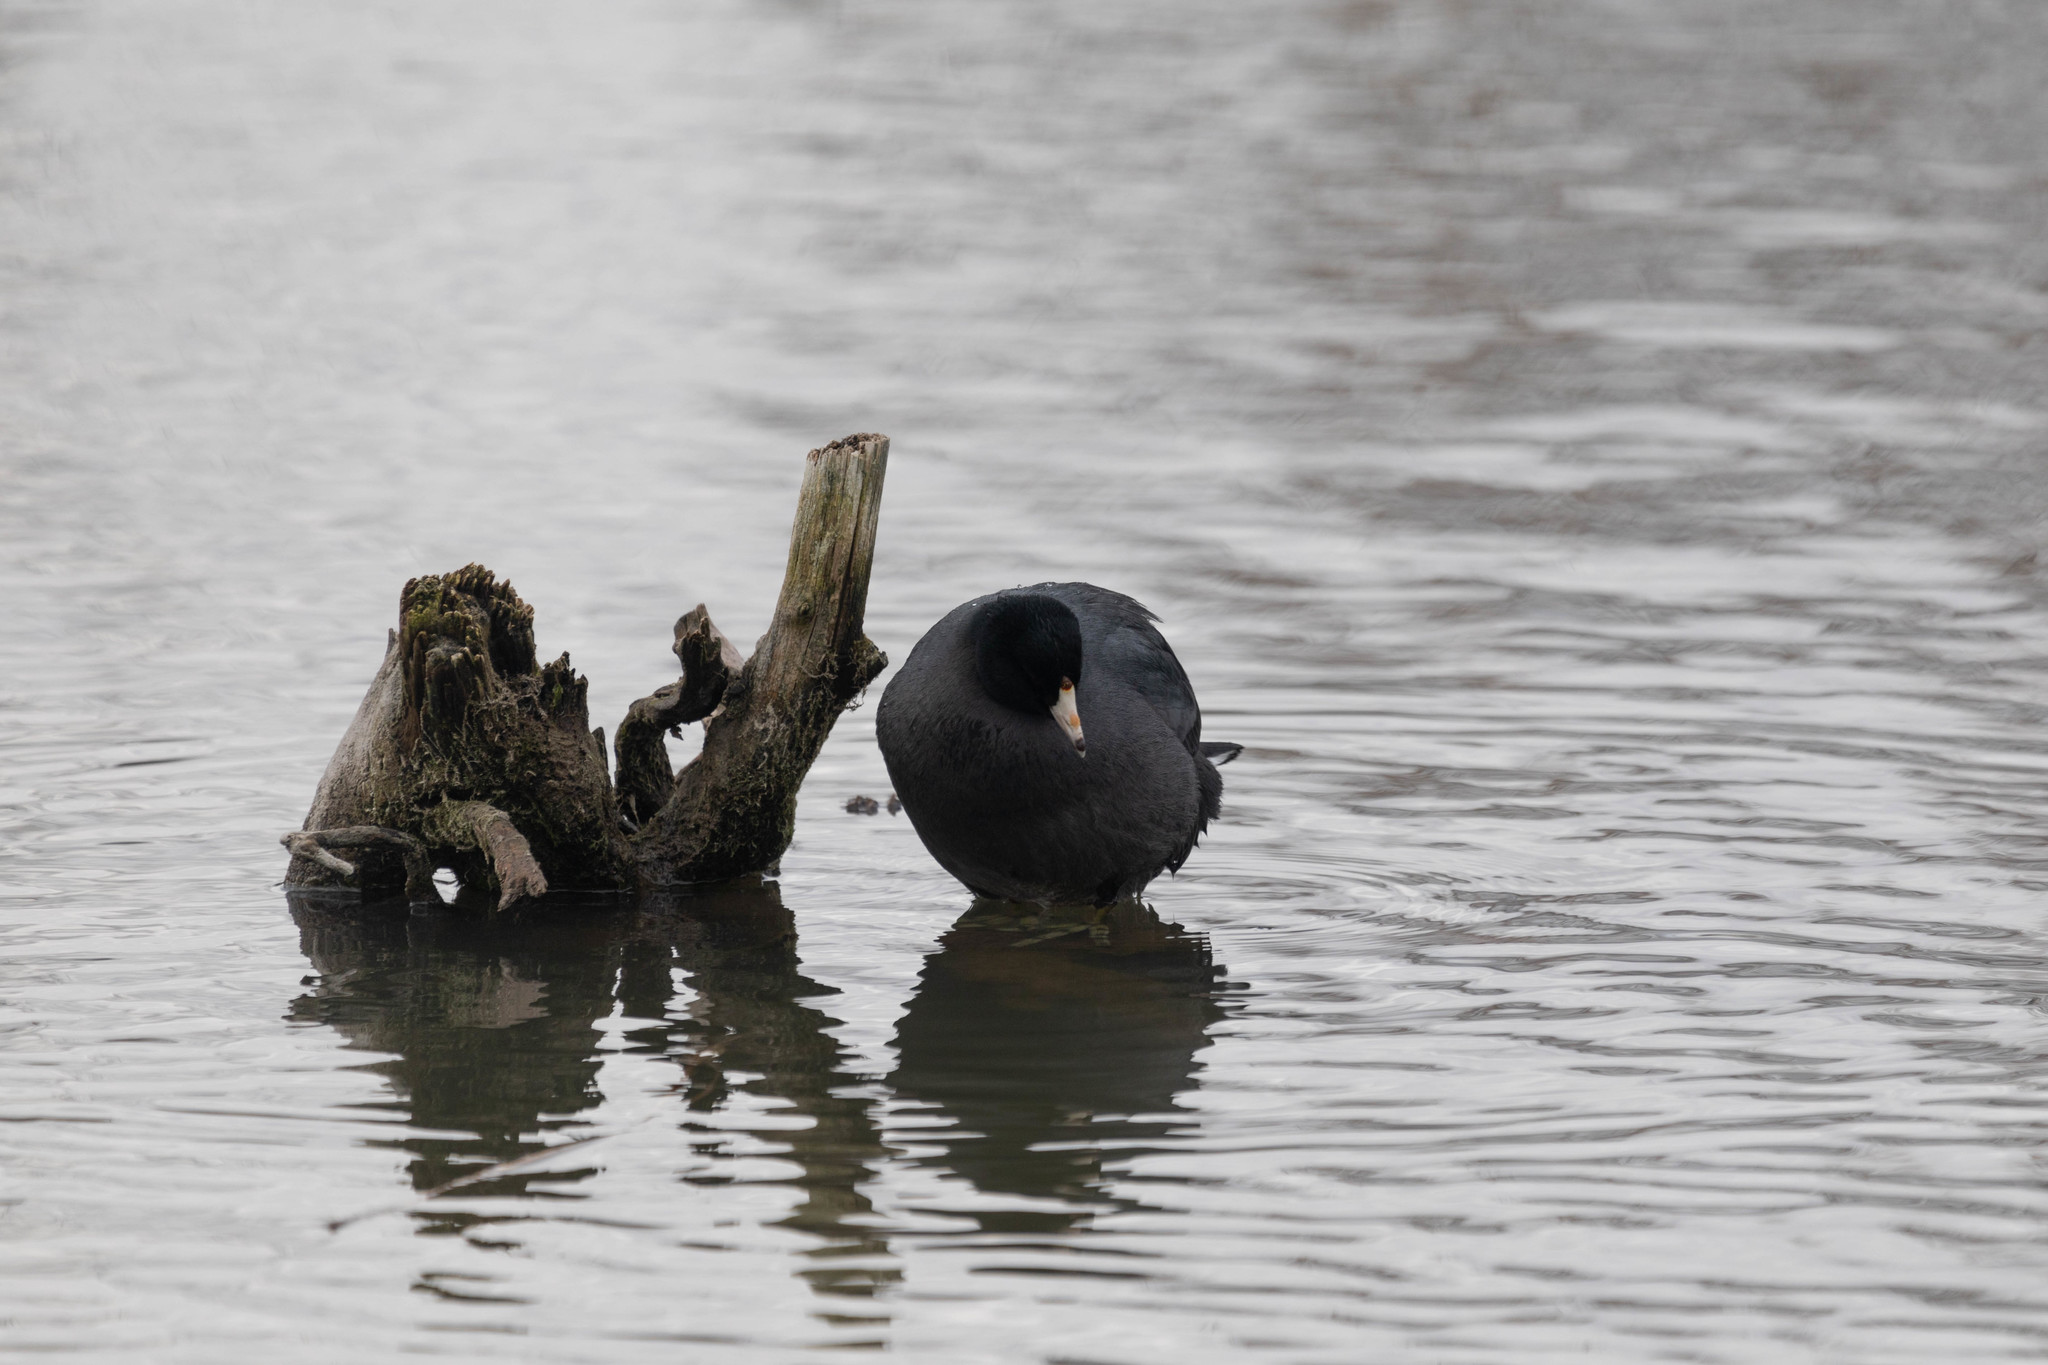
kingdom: Animalia
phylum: Chordata
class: Aves
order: Gruiformes
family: Rallidae
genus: Fulica
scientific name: Fulica americana
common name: American coot
